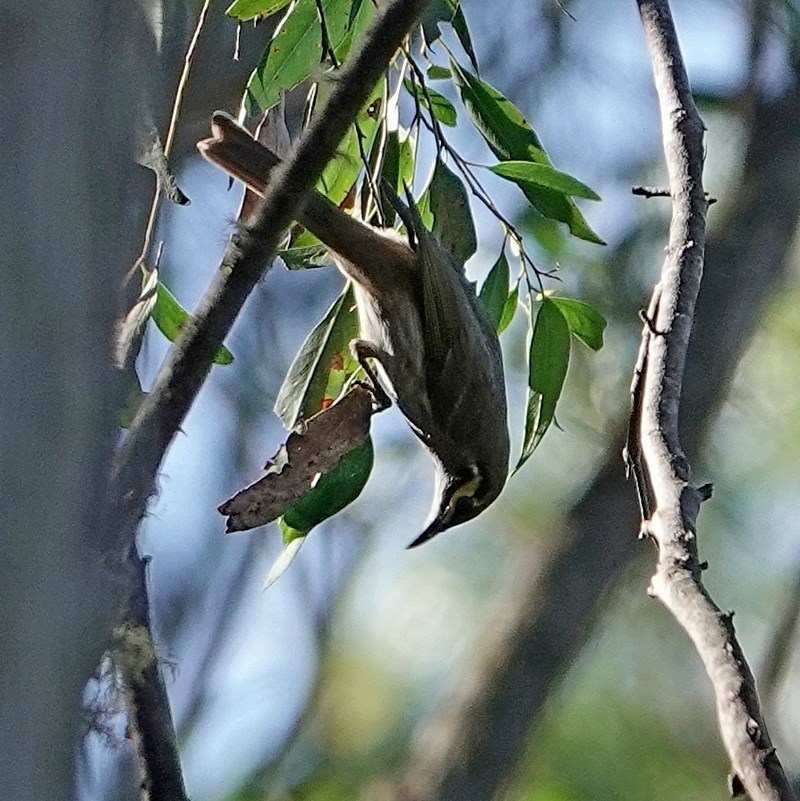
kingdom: Animalia
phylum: Chordata
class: Aves
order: Passeriformes
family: Meliphagidae
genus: Caligavis
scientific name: Caligavis chrysops
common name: Yellow-faced honeyeater
